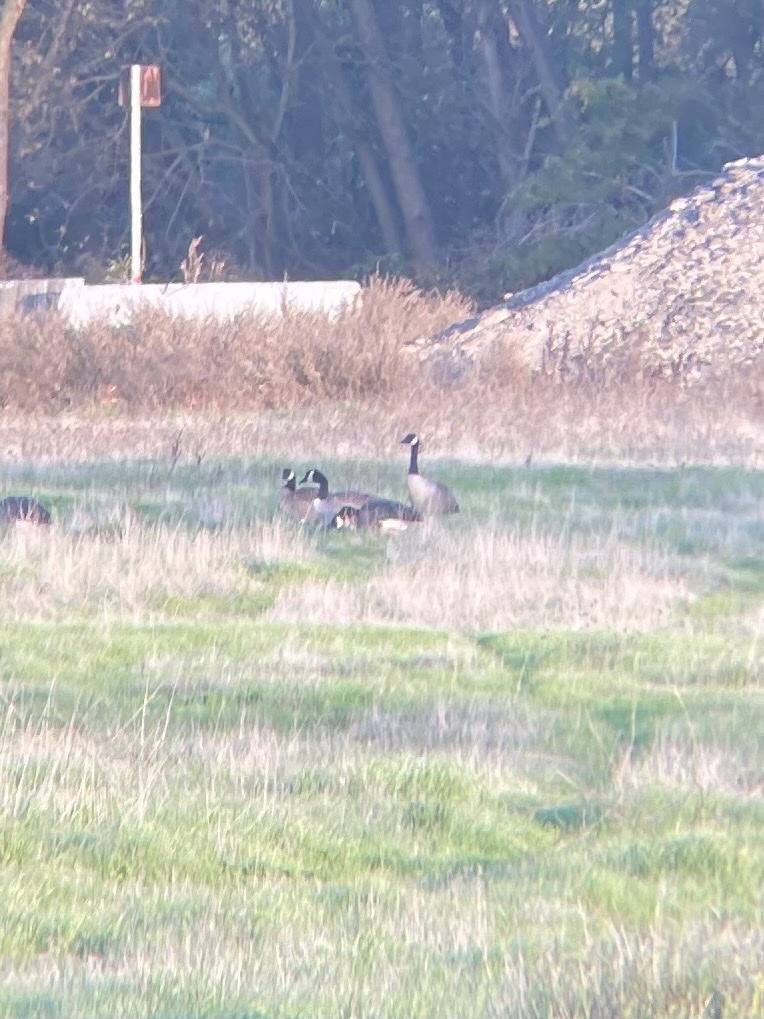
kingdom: Animalia
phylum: Chordata
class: Aves
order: Anseriformes
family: Anatidae
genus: Branta
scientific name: Branta canadensis
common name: Canada goose
